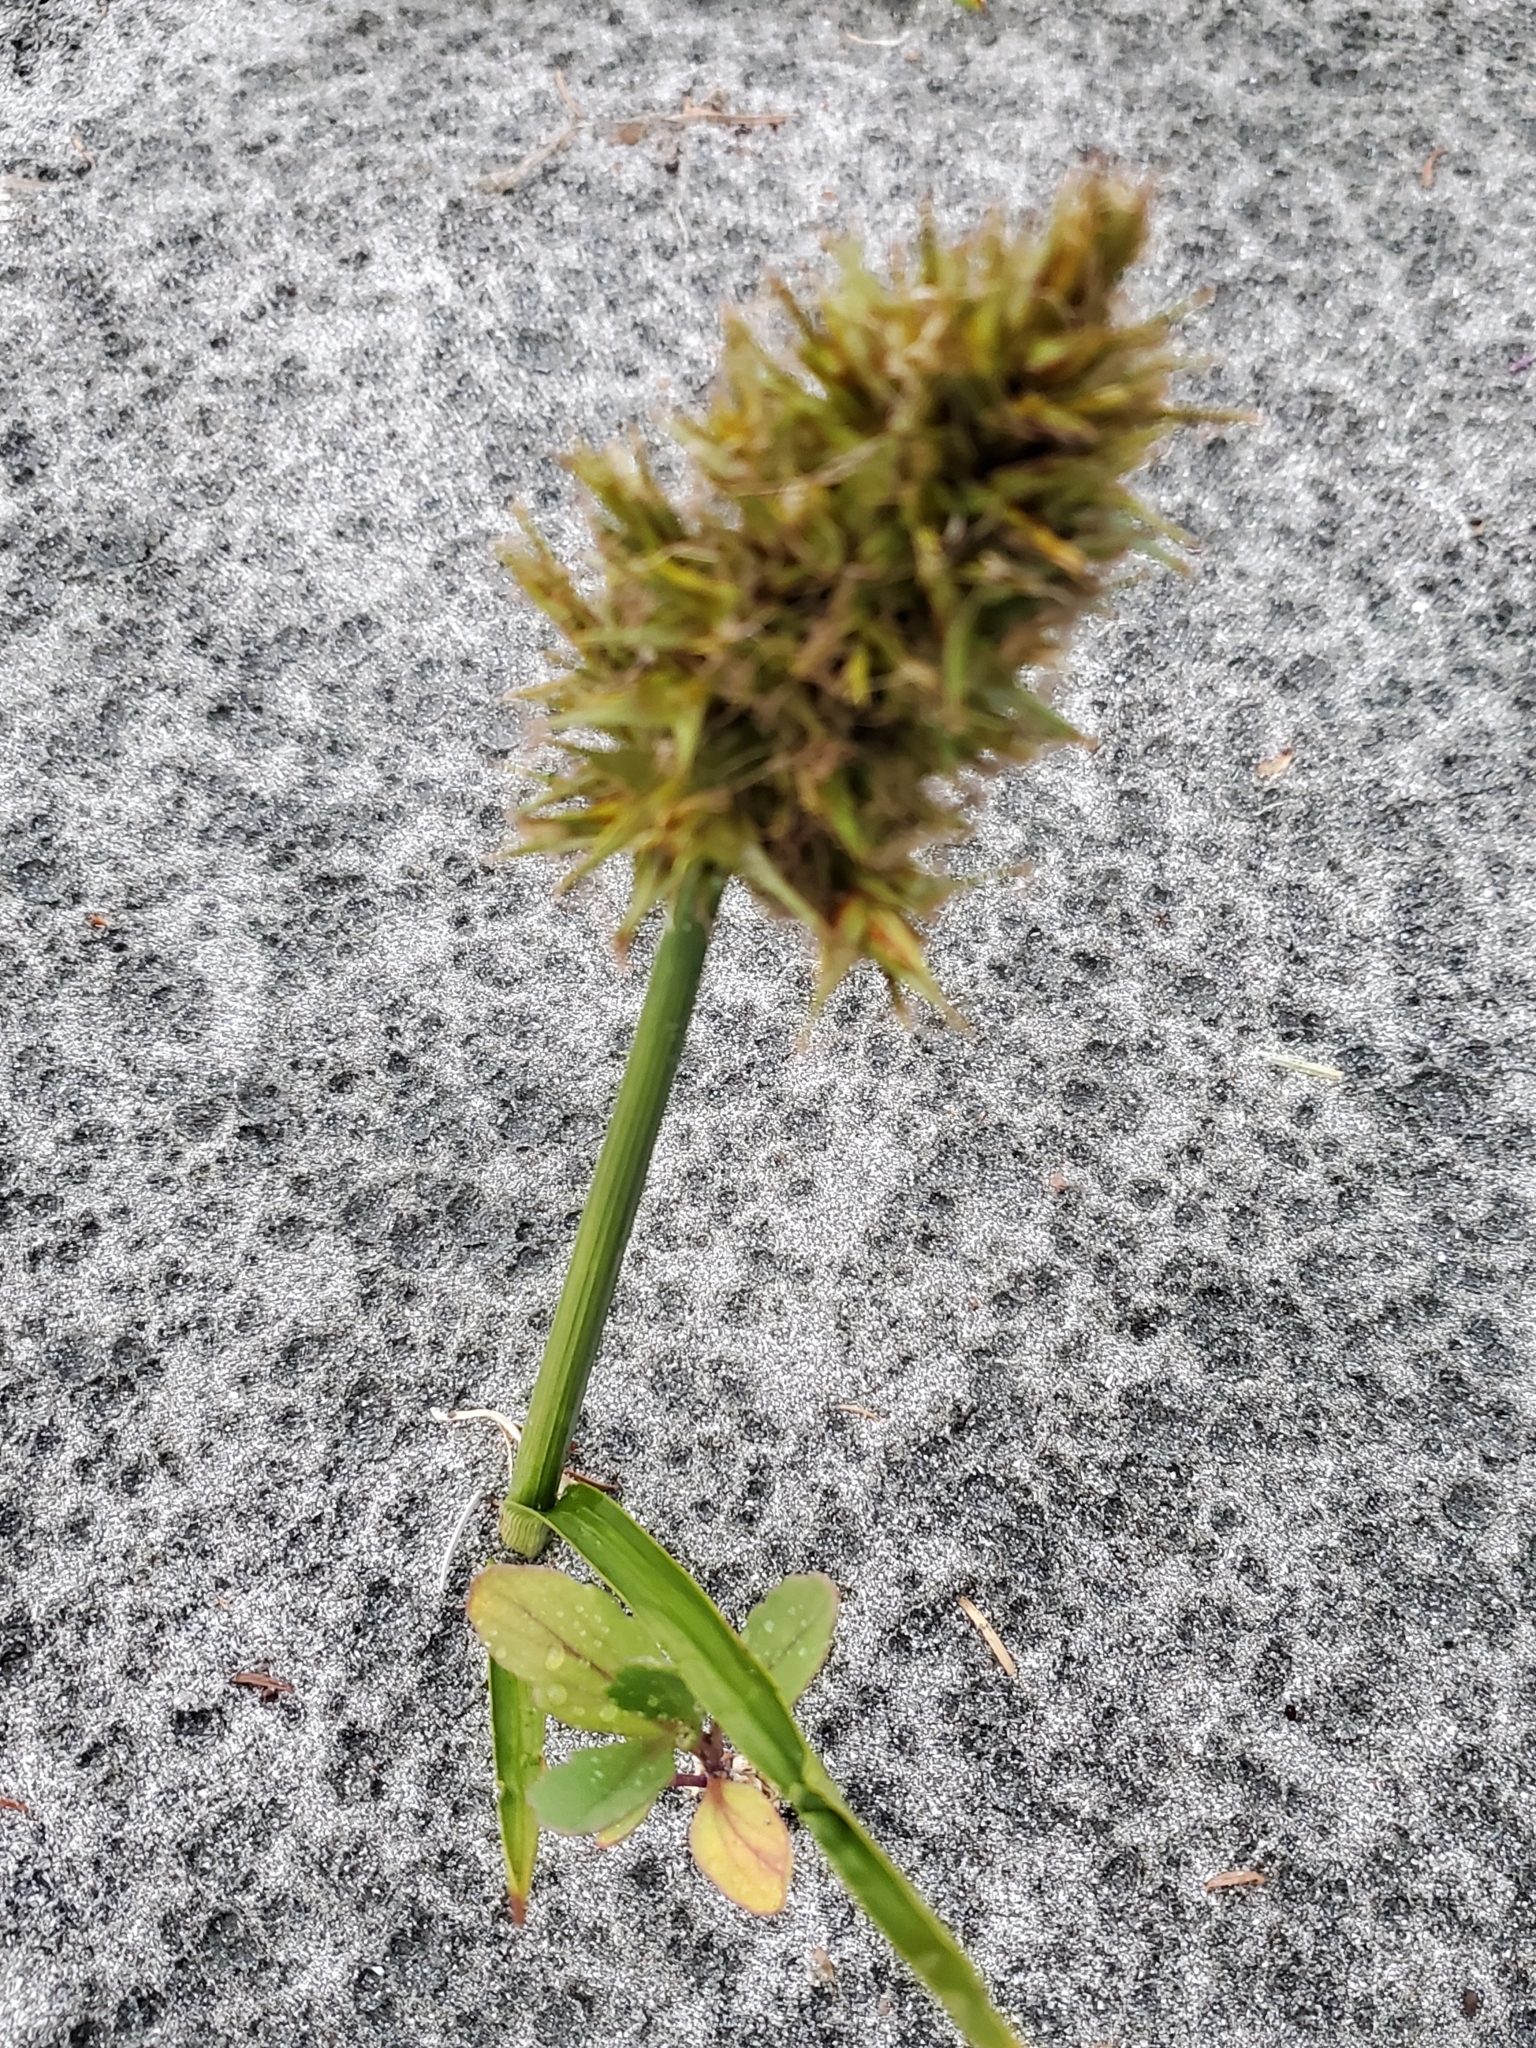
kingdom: Plantae
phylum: Tracheophyta
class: Liliopsida
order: Poales
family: Cyperaceae
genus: Carex
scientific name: Carex macrocephala
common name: Large-head sedge
